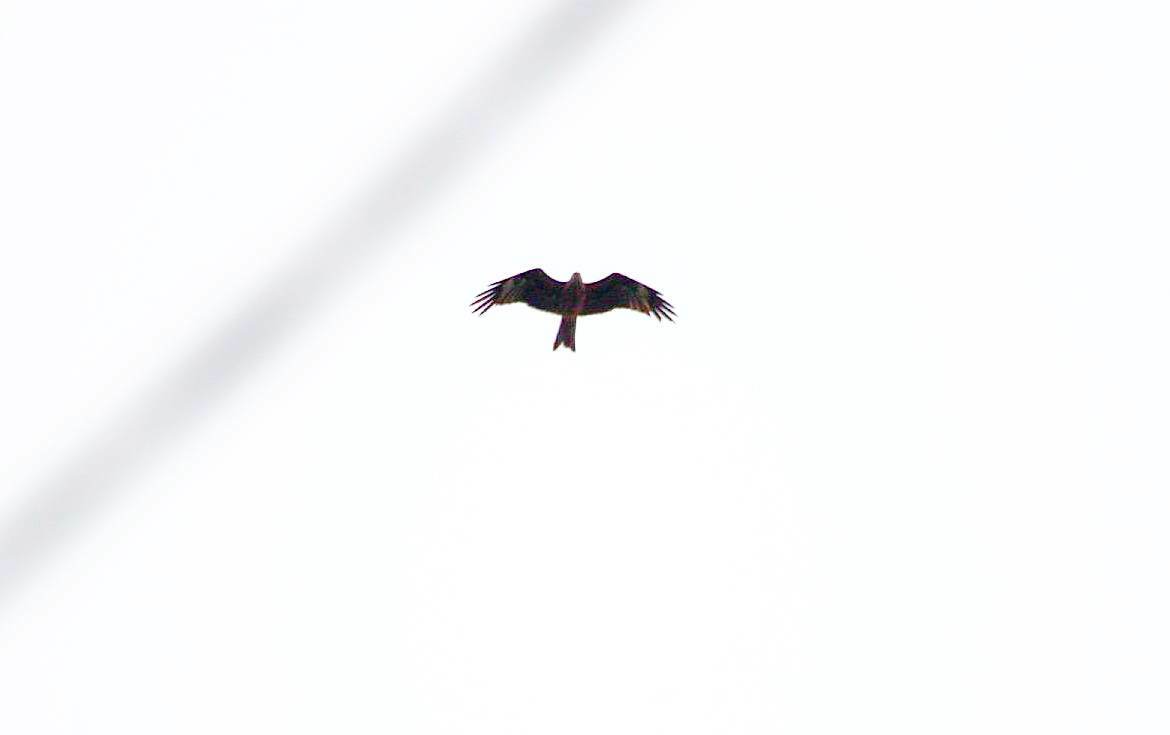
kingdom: Animalia
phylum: Chordata
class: Aves
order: Accipitriformes
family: Accipitridae
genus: Milvus
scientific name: Milvus migrans
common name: Black kite
